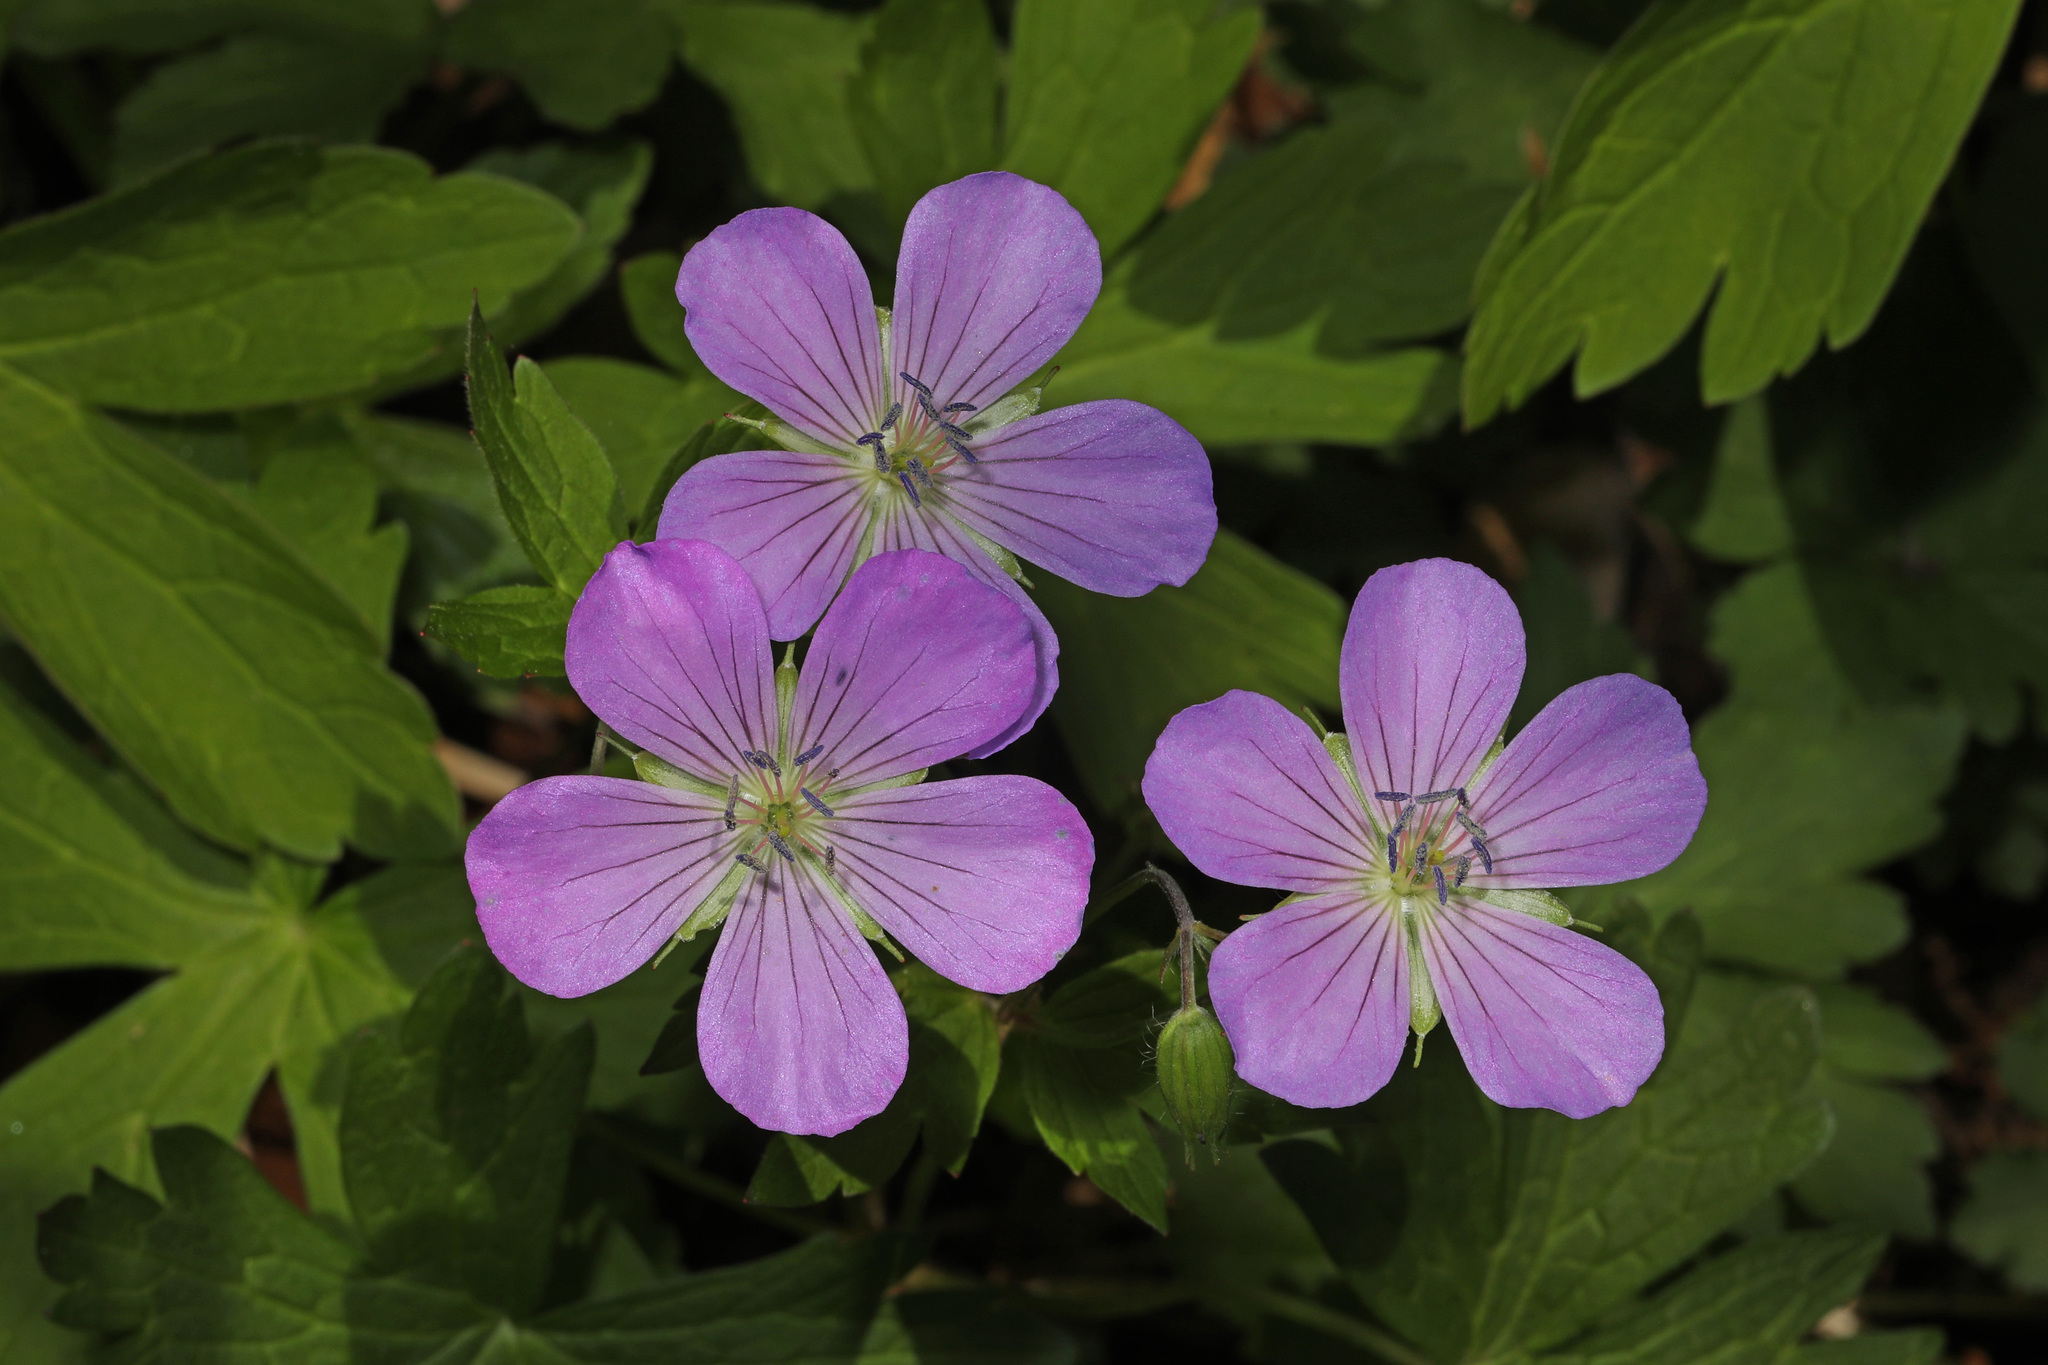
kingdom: Plantae
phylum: Tracheophyta
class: Magnoliopsida
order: Geraniales
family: Geraniaceae
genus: Geranium
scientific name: Geranium maculatum
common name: Spotted geranium
